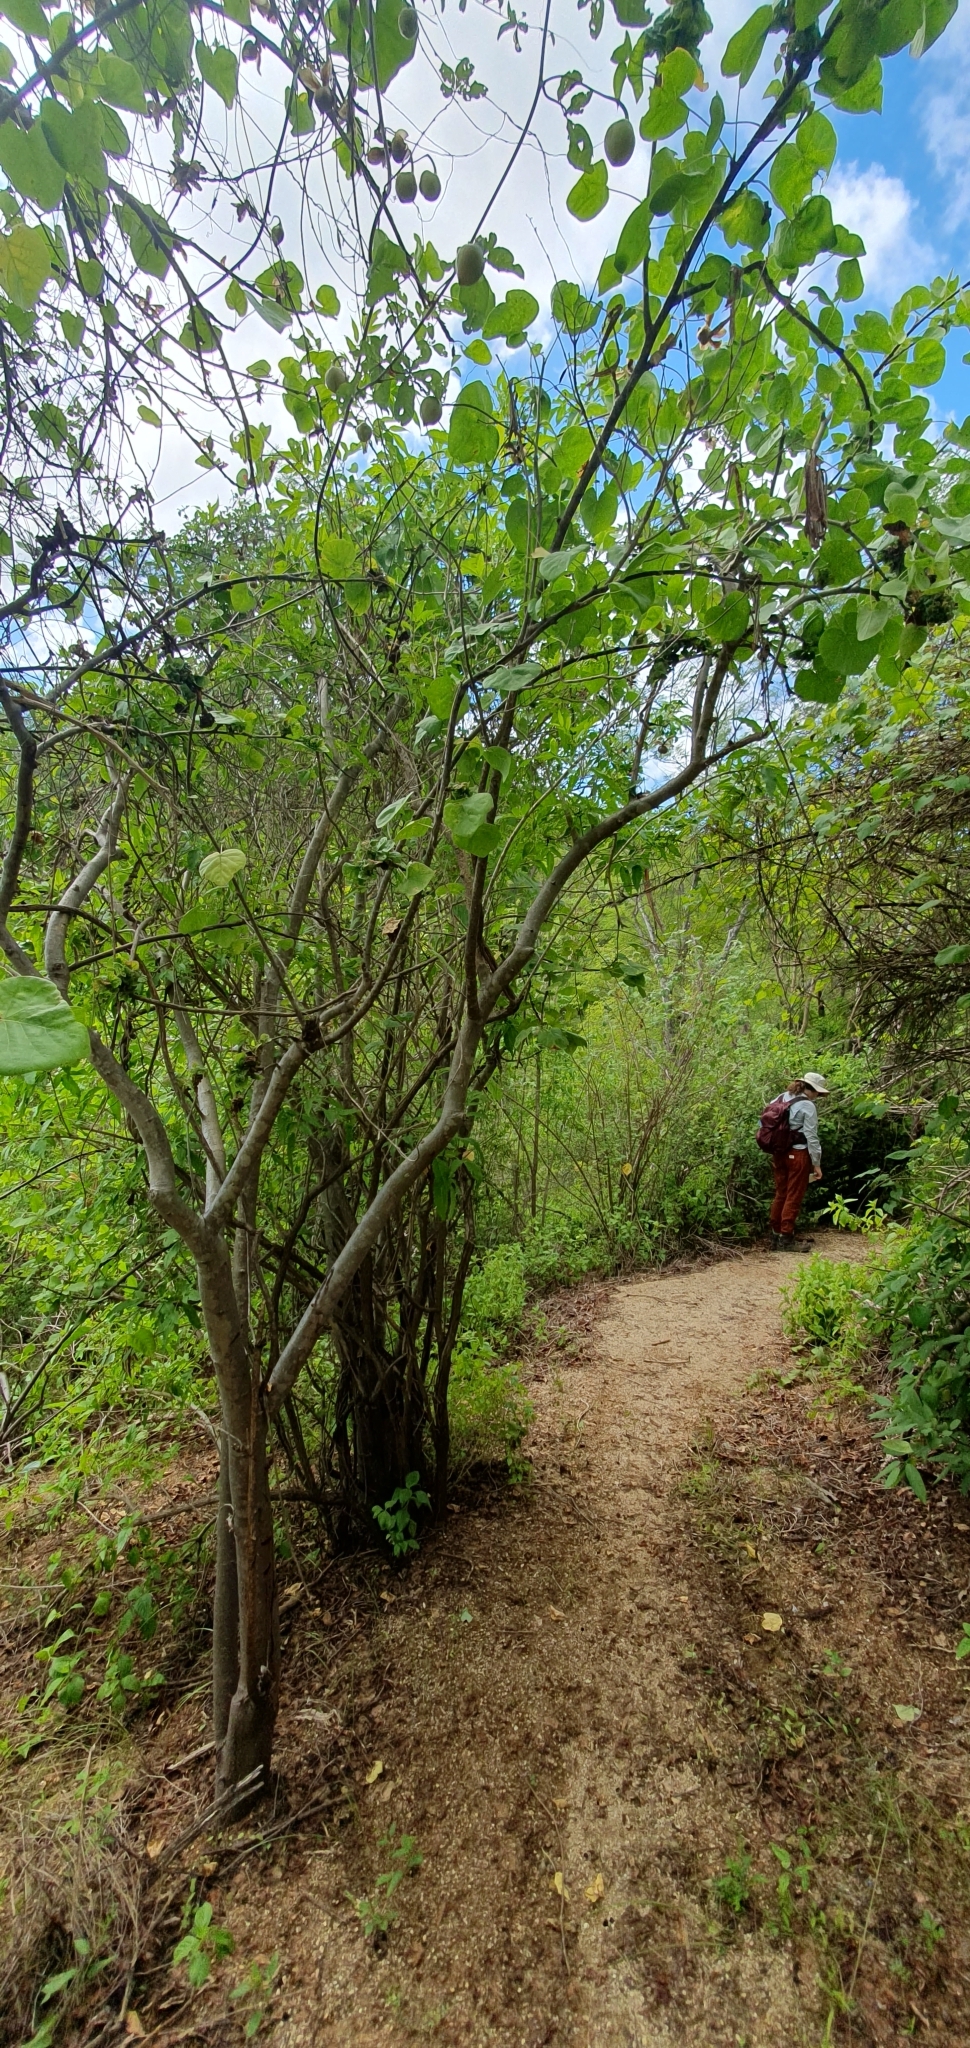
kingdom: Plantae
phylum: Tracheophyta
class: Magnoliopsida
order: Malpighiales
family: Euphorbiaceae
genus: Jatropha
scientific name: Jatropha cinerea
